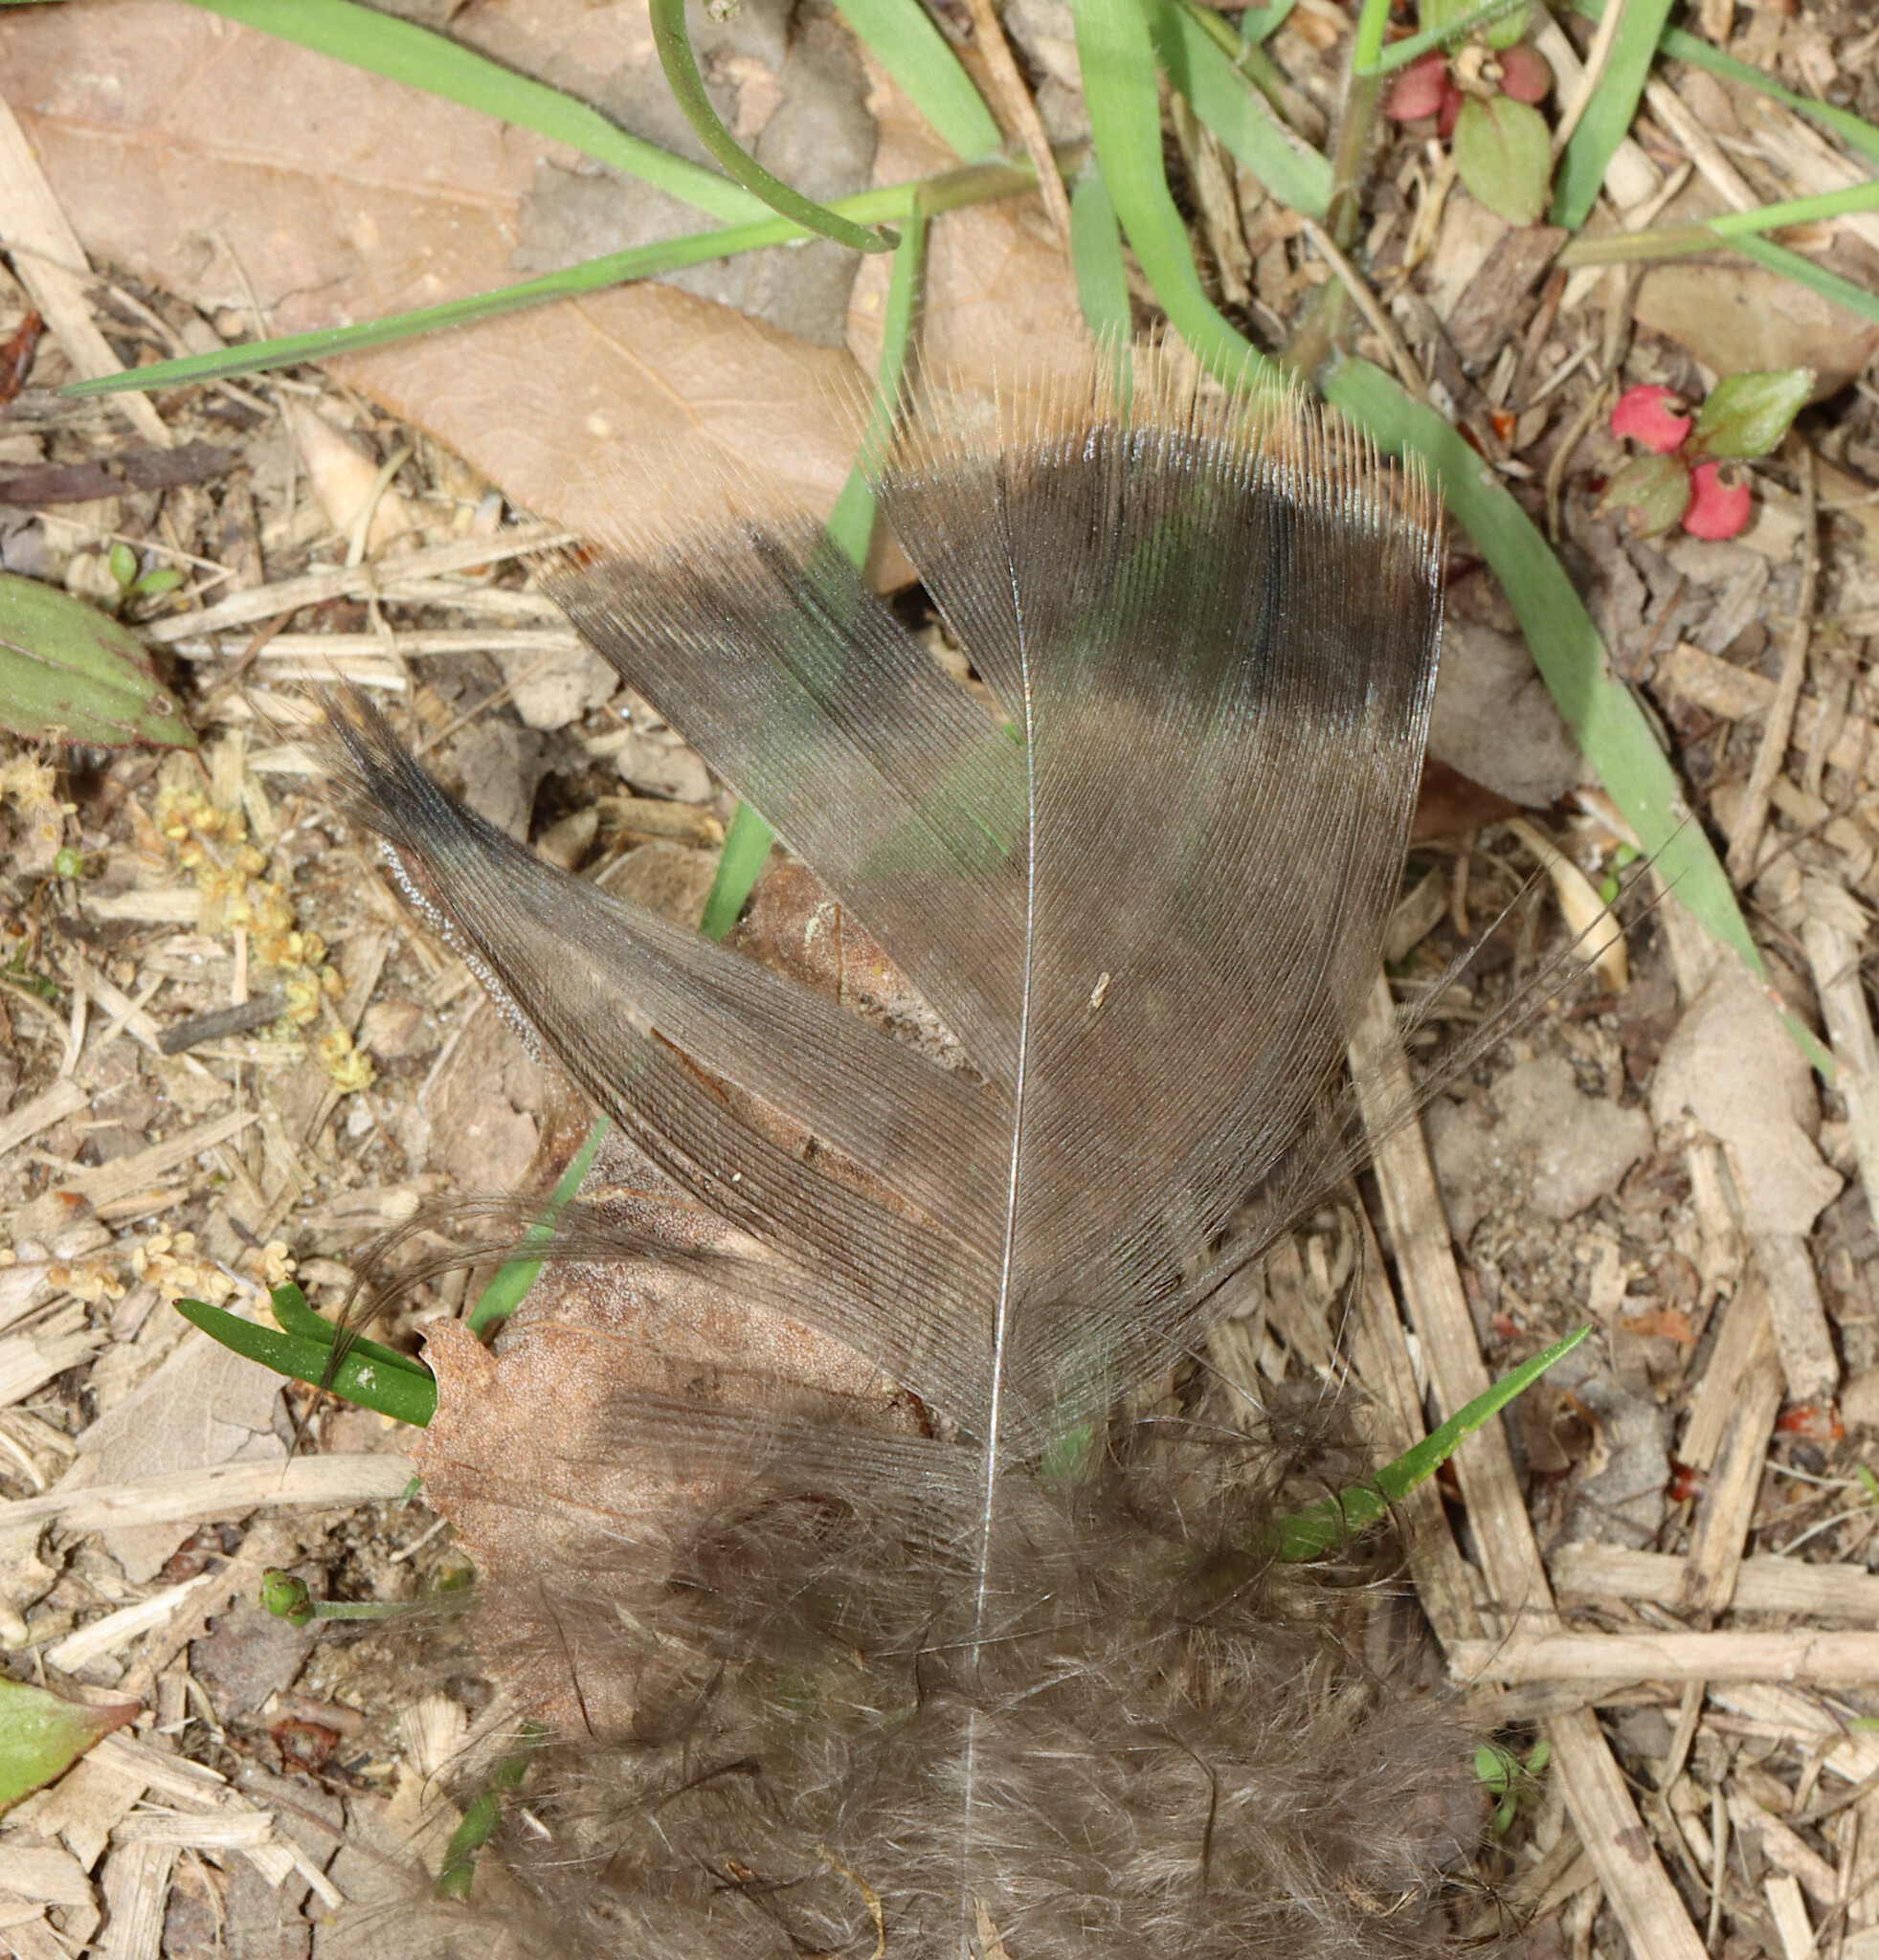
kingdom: Animalia
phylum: Chordata
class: Aves
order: Galliformes
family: Phasianidae
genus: Meleagris
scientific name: Meleagris gallopavo
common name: Wild turkey
